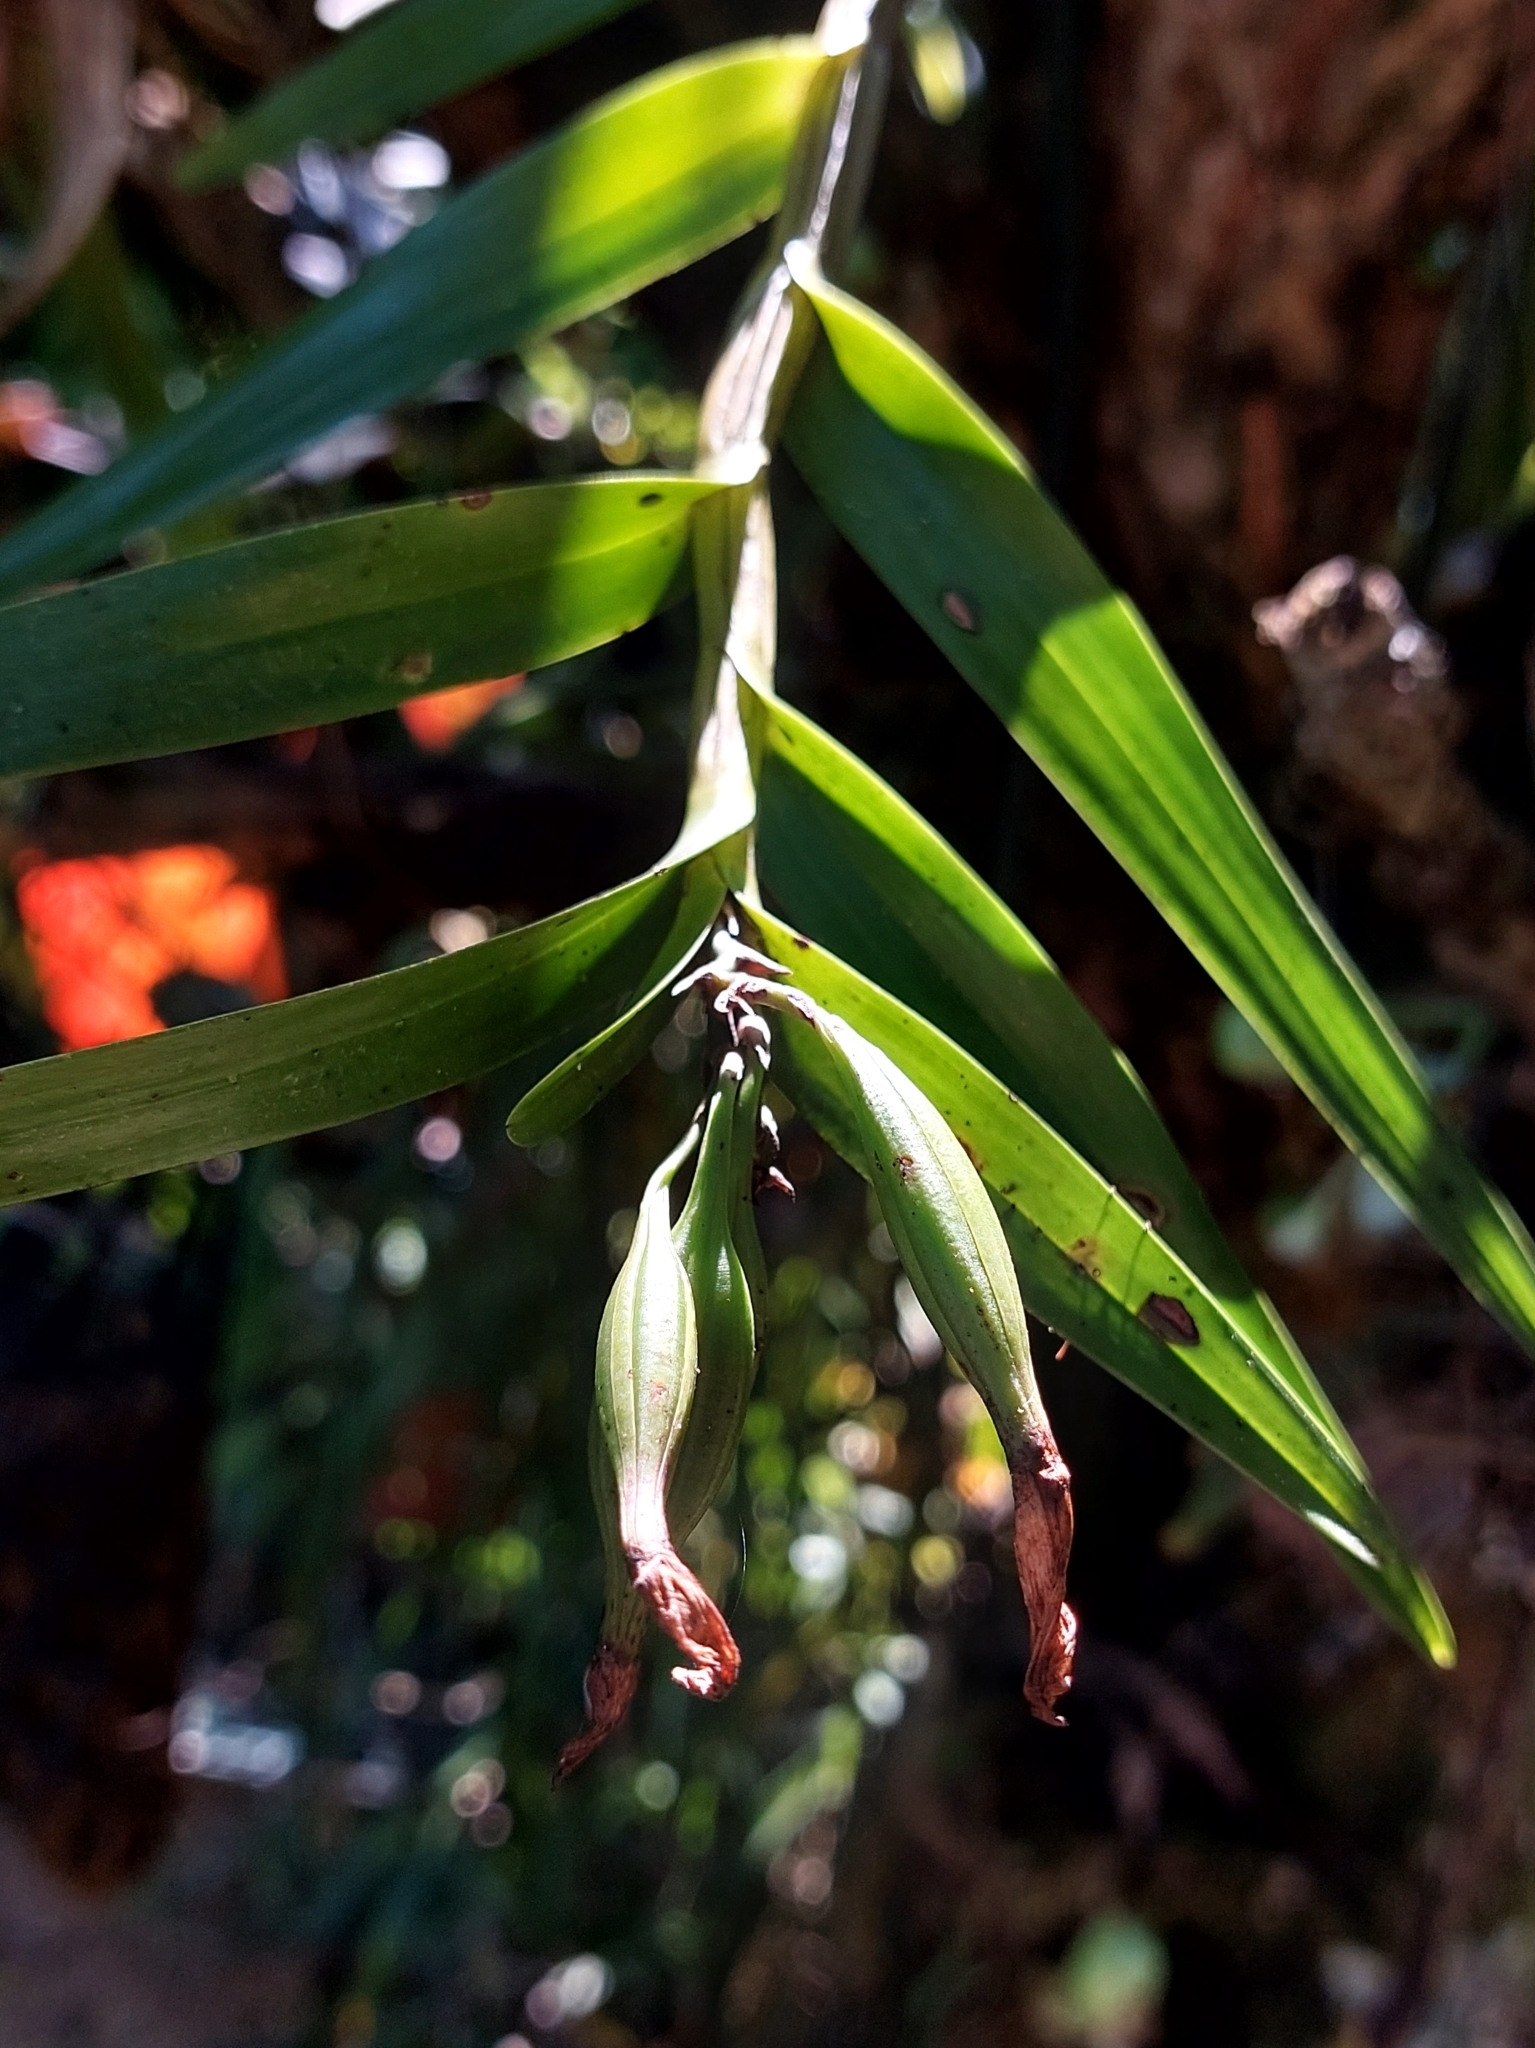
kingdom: Plantae
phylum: Tracheophyta
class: Liliopsida
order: Asparagales
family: Orchidaceae
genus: Dimerandra
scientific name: Dimerandra emarginata
